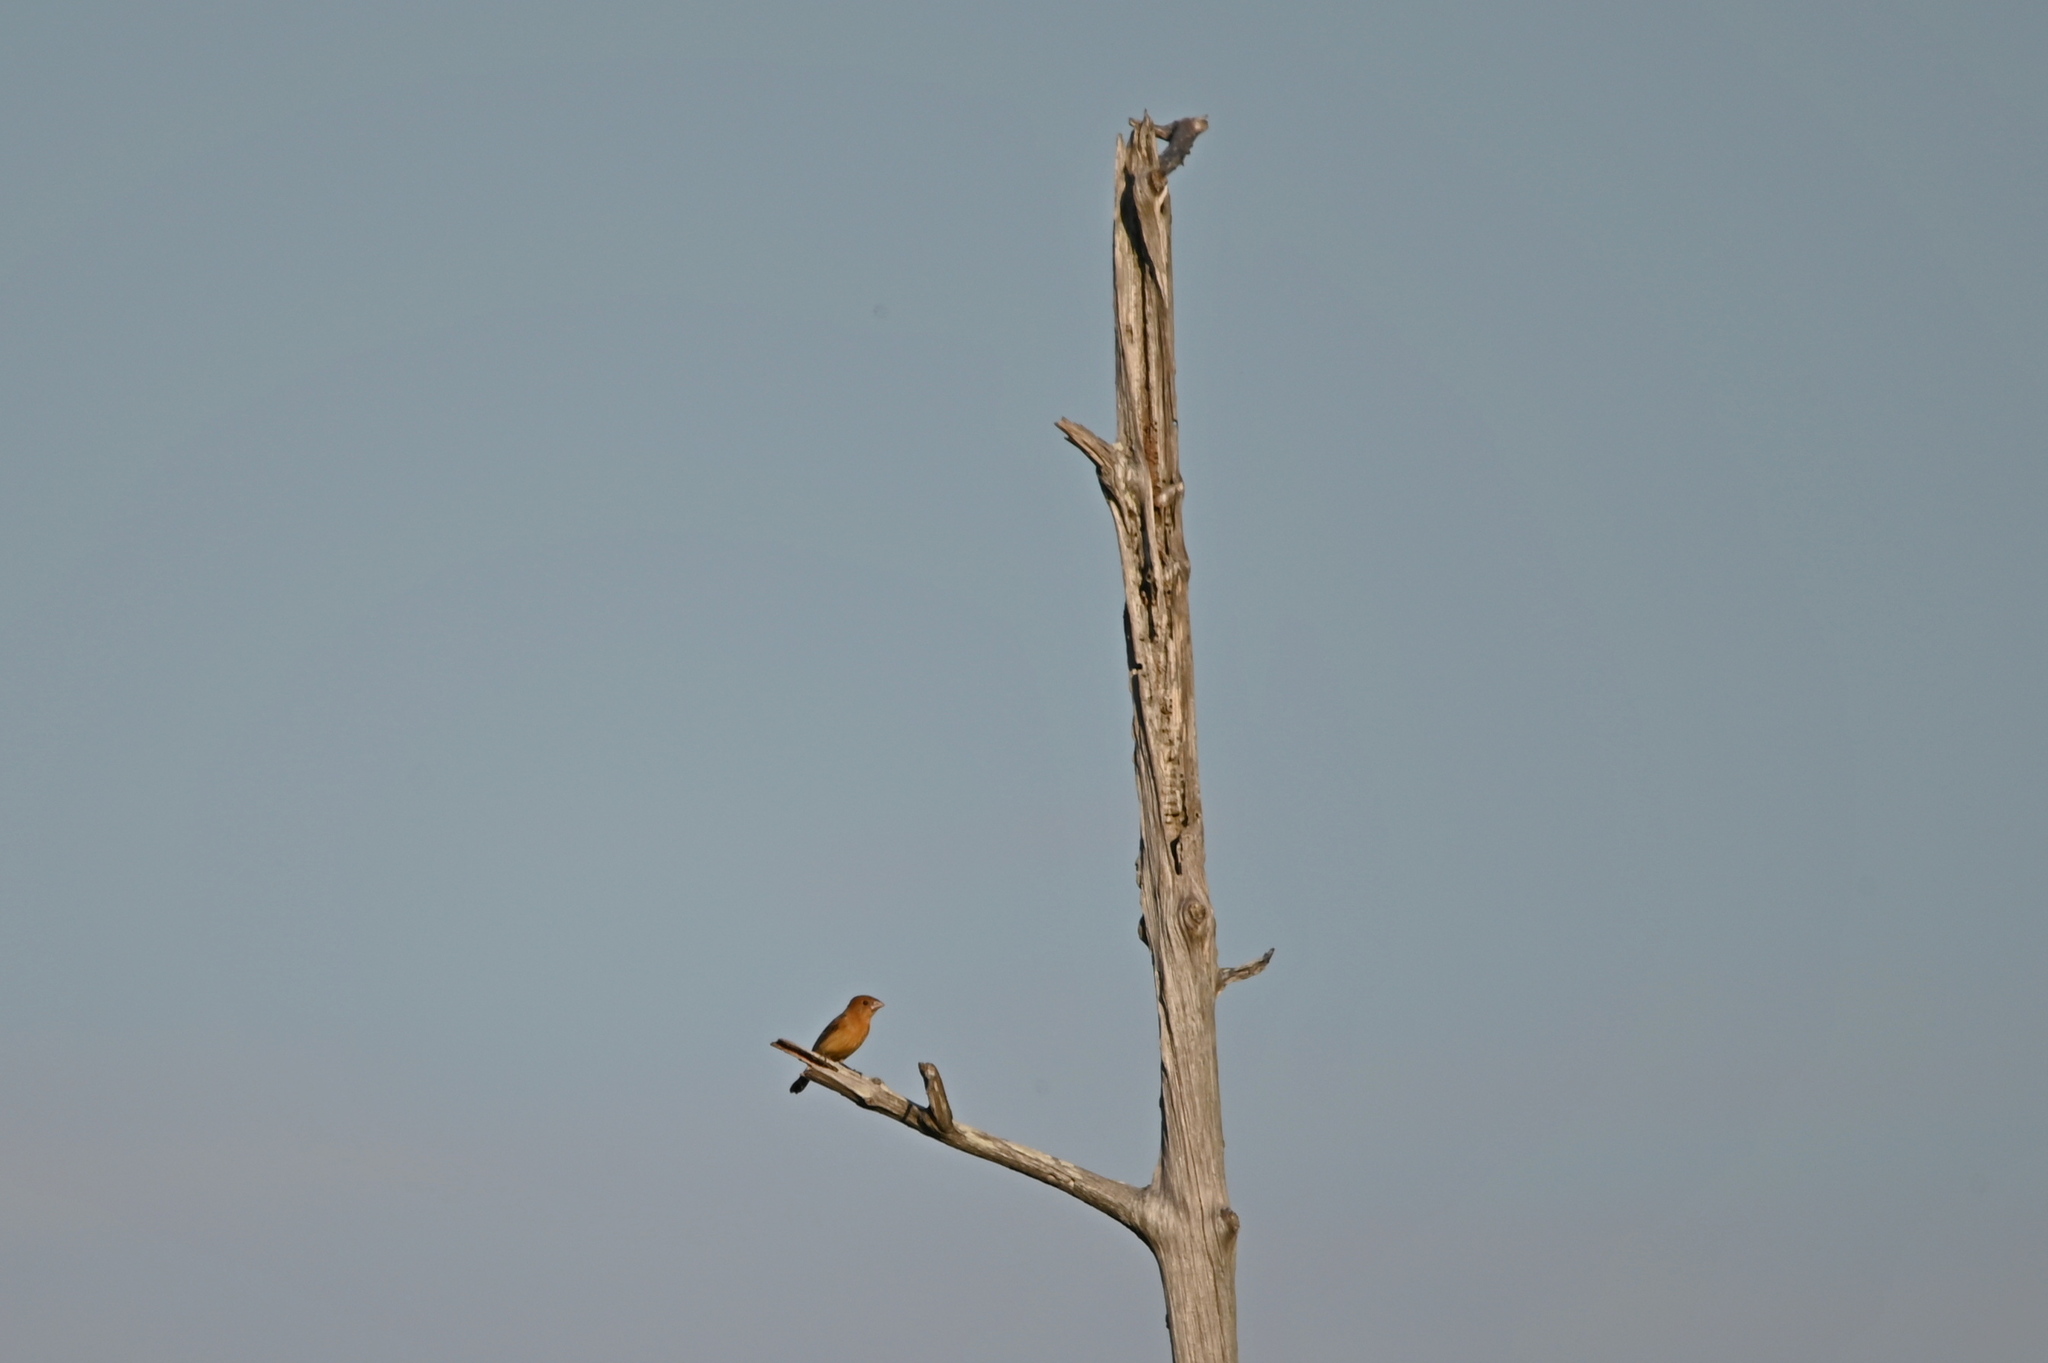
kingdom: Animalia
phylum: Chordata
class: Aves
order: Passeriformes
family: Cardinalidae
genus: Passerina
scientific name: Passerina caerulea
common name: Blue grosbeak
